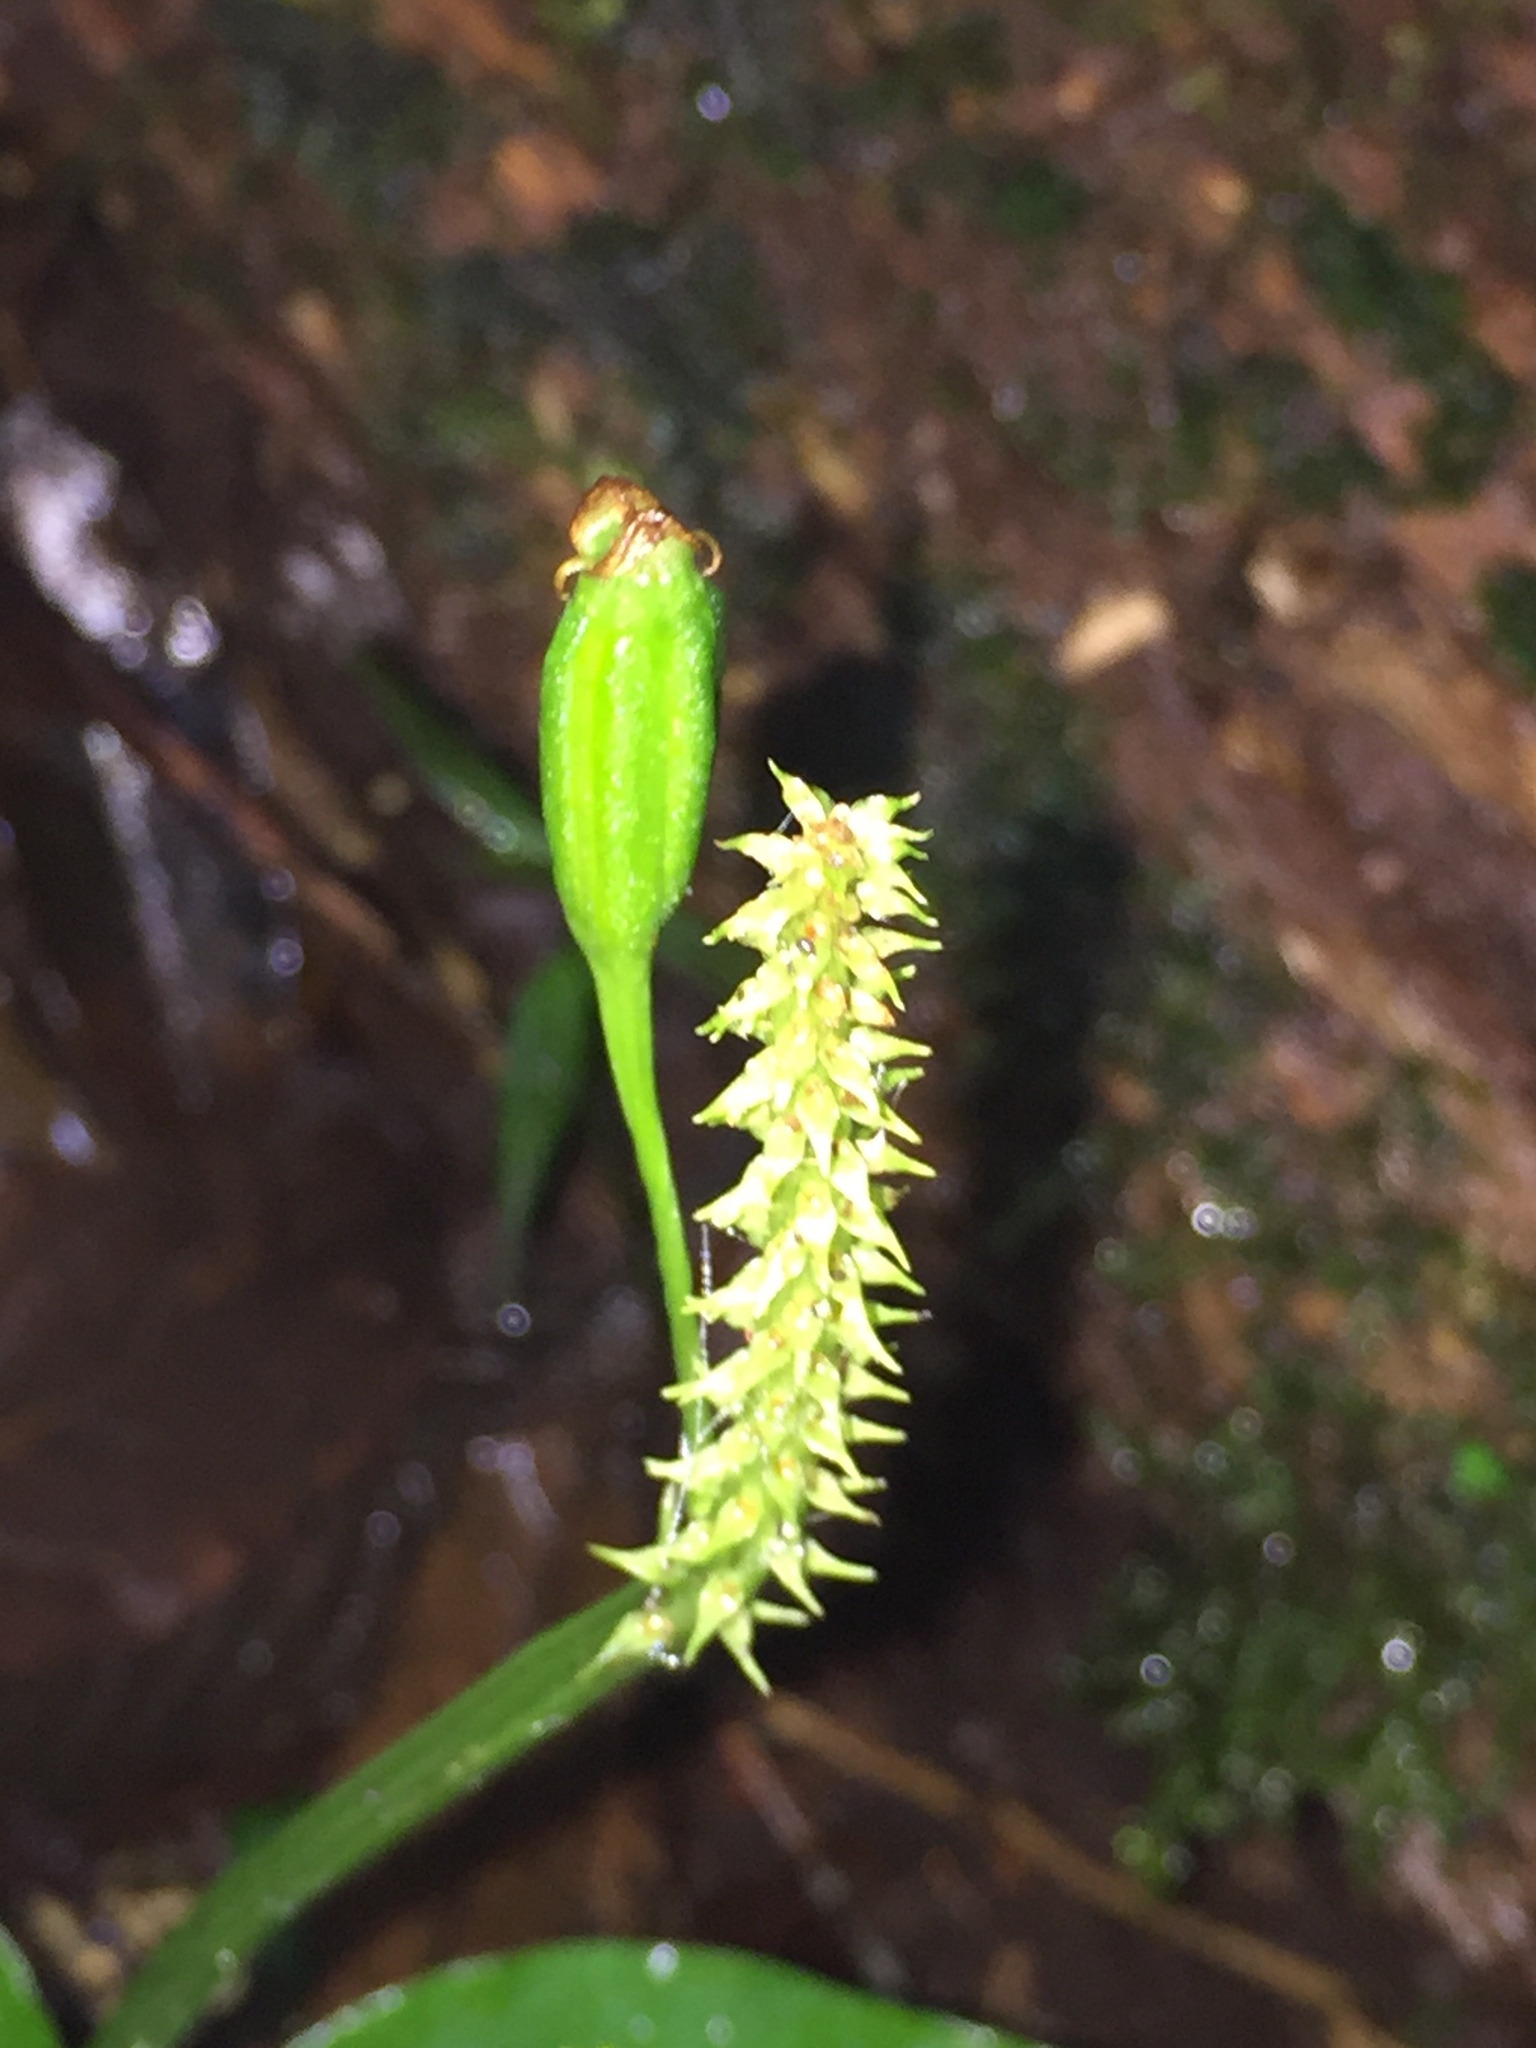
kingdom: Plantae
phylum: Tracheophyta
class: Liliopsida
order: Asparagales
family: Orchidaceae
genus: Malaxis
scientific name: Malaxis lepanthiflora
